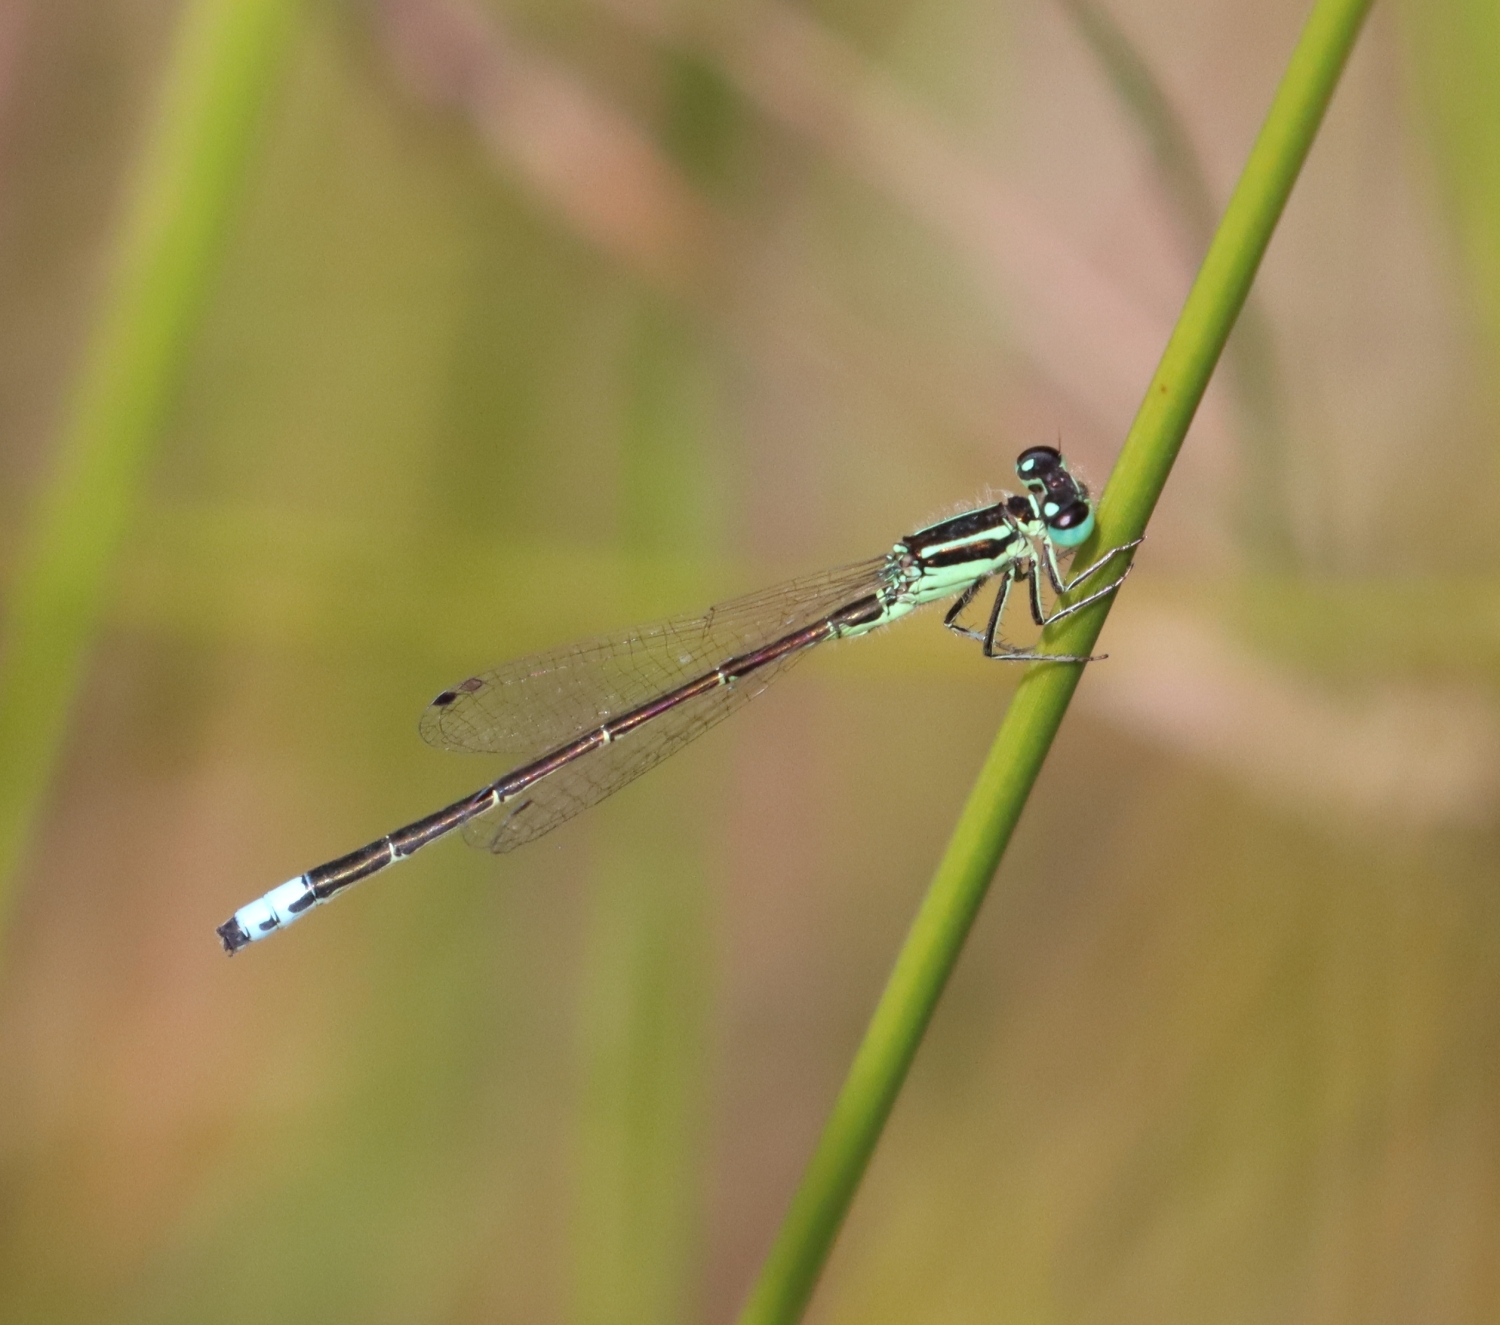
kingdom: Animalia
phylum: Arthropoda
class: Insecta
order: Odonata
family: Coenagrionidae
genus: Ischnura
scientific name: Ischnura verticalis
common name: Eastern forktail
